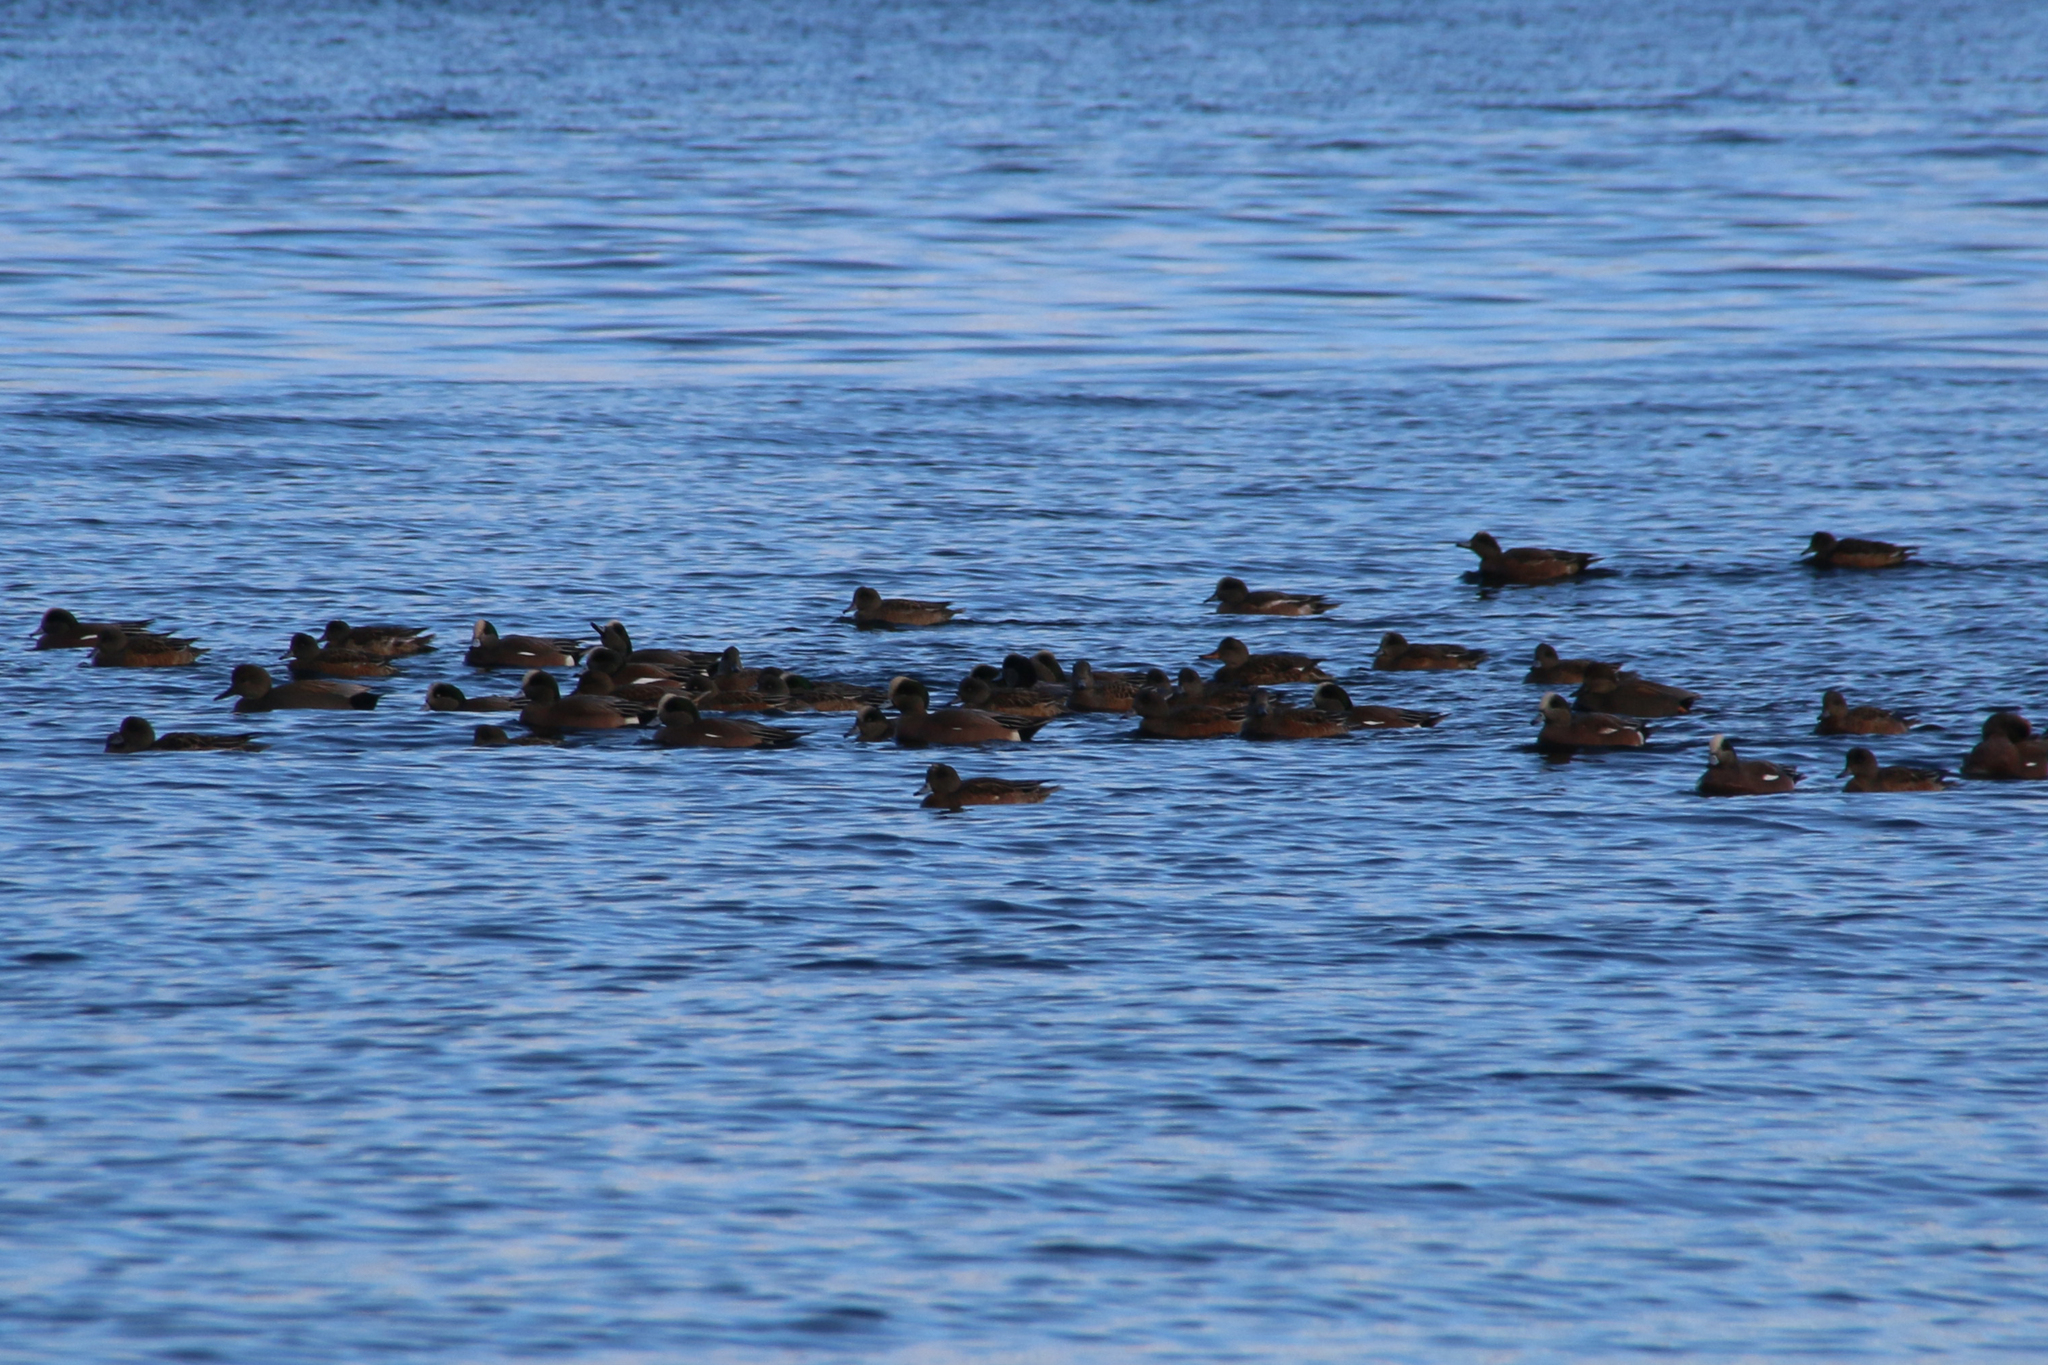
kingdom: Animalia
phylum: Chordata
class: Aves
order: Anseriformes
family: Anatidae
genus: Mareca
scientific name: Mareca americana
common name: American wigeon
